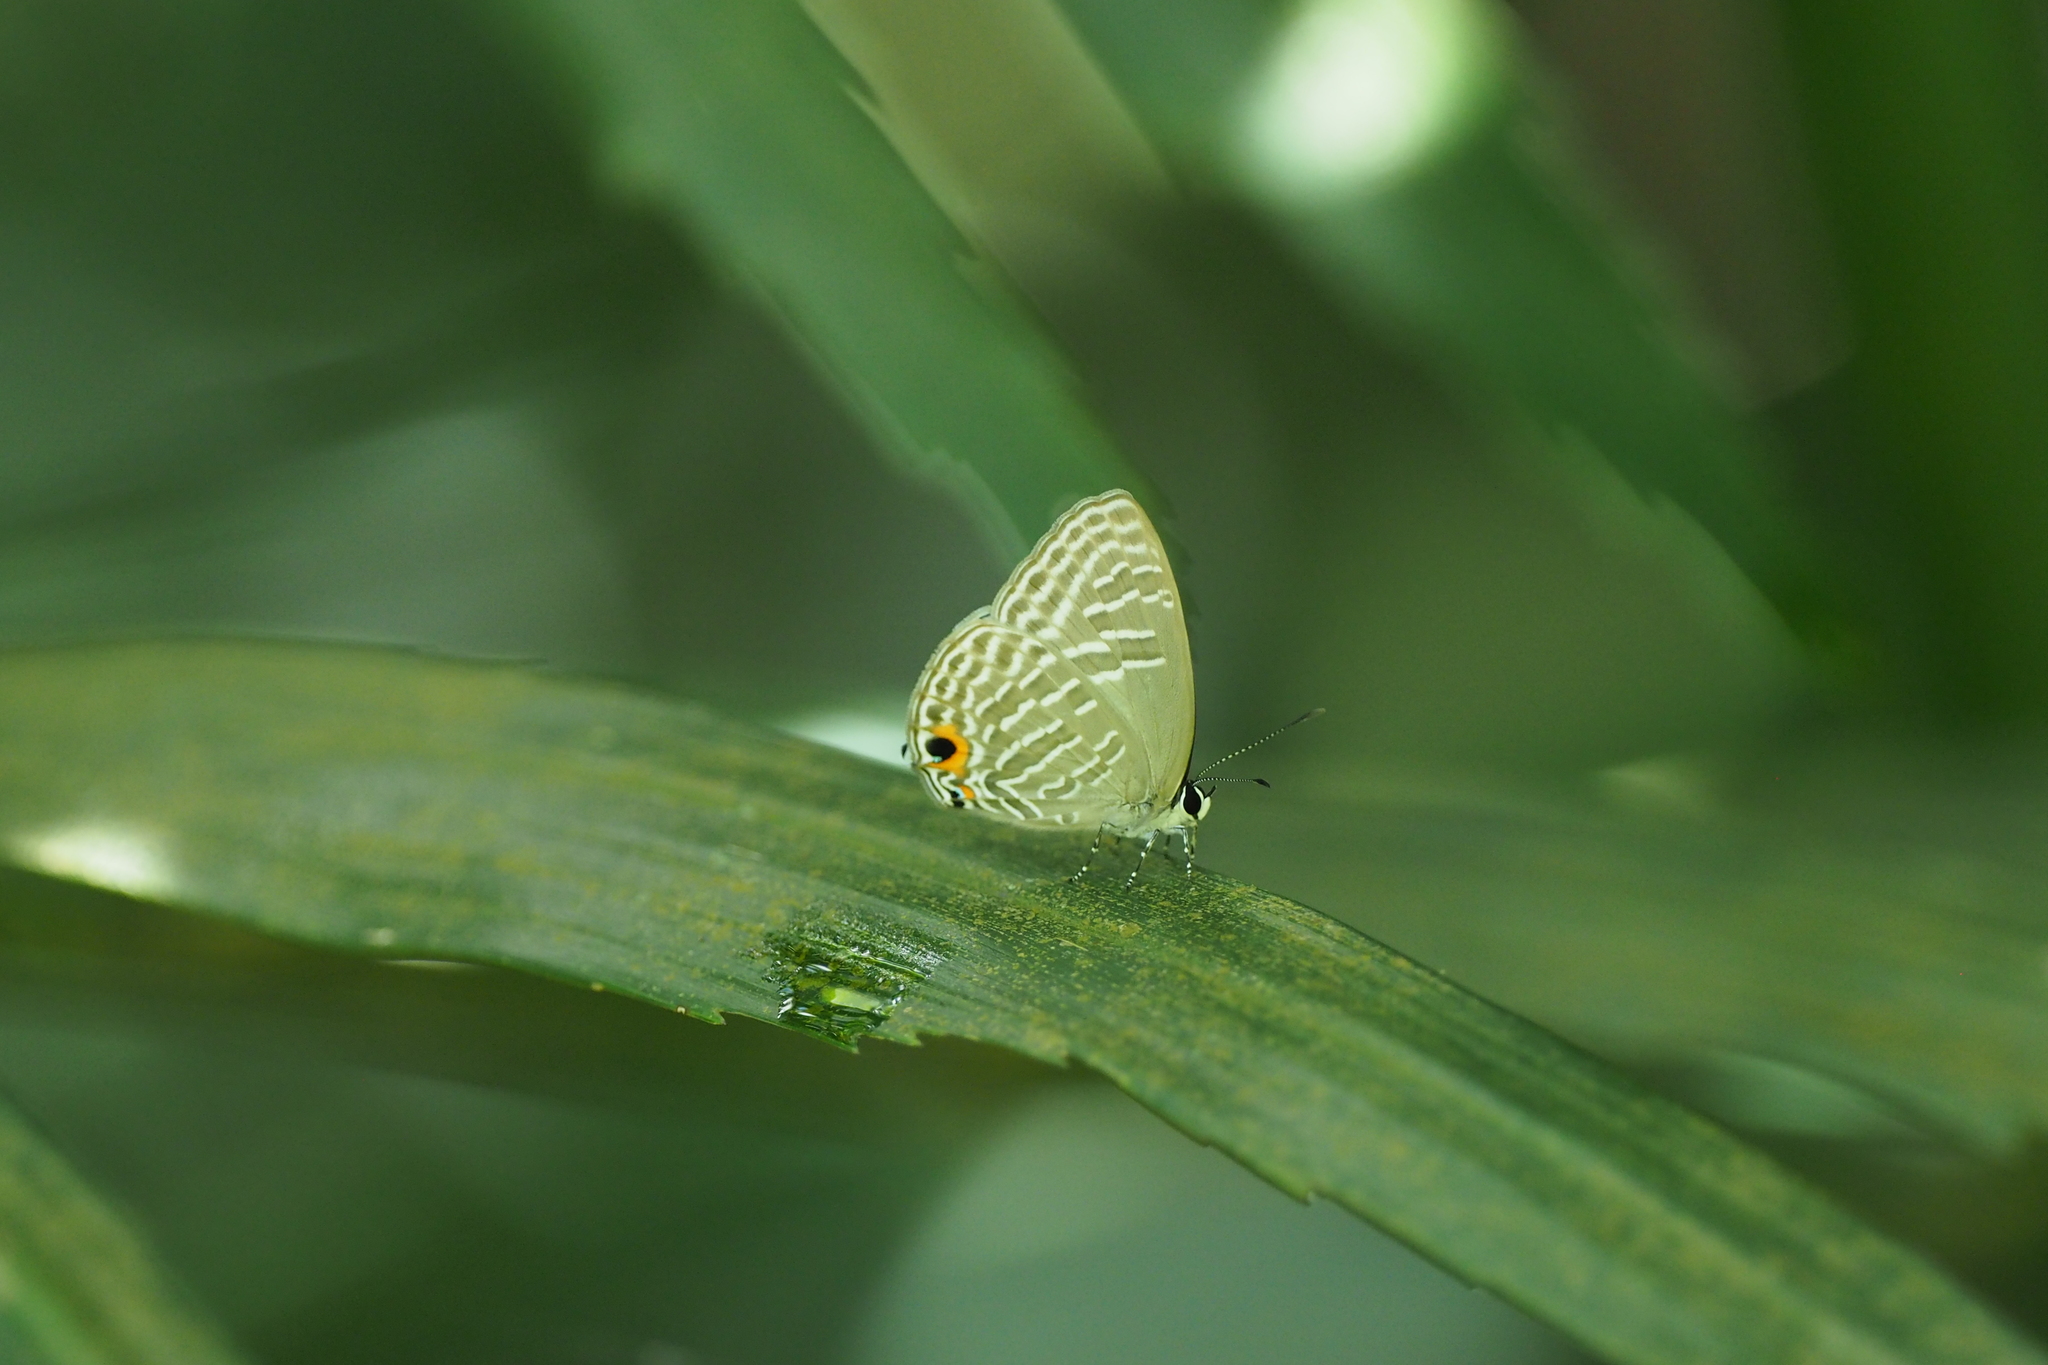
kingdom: Animalia
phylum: Arthropoda
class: Insecta
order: Lepidoptera
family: Lycaenidae
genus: Jamides
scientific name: Jamides alecto
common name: Metallic cerulean
